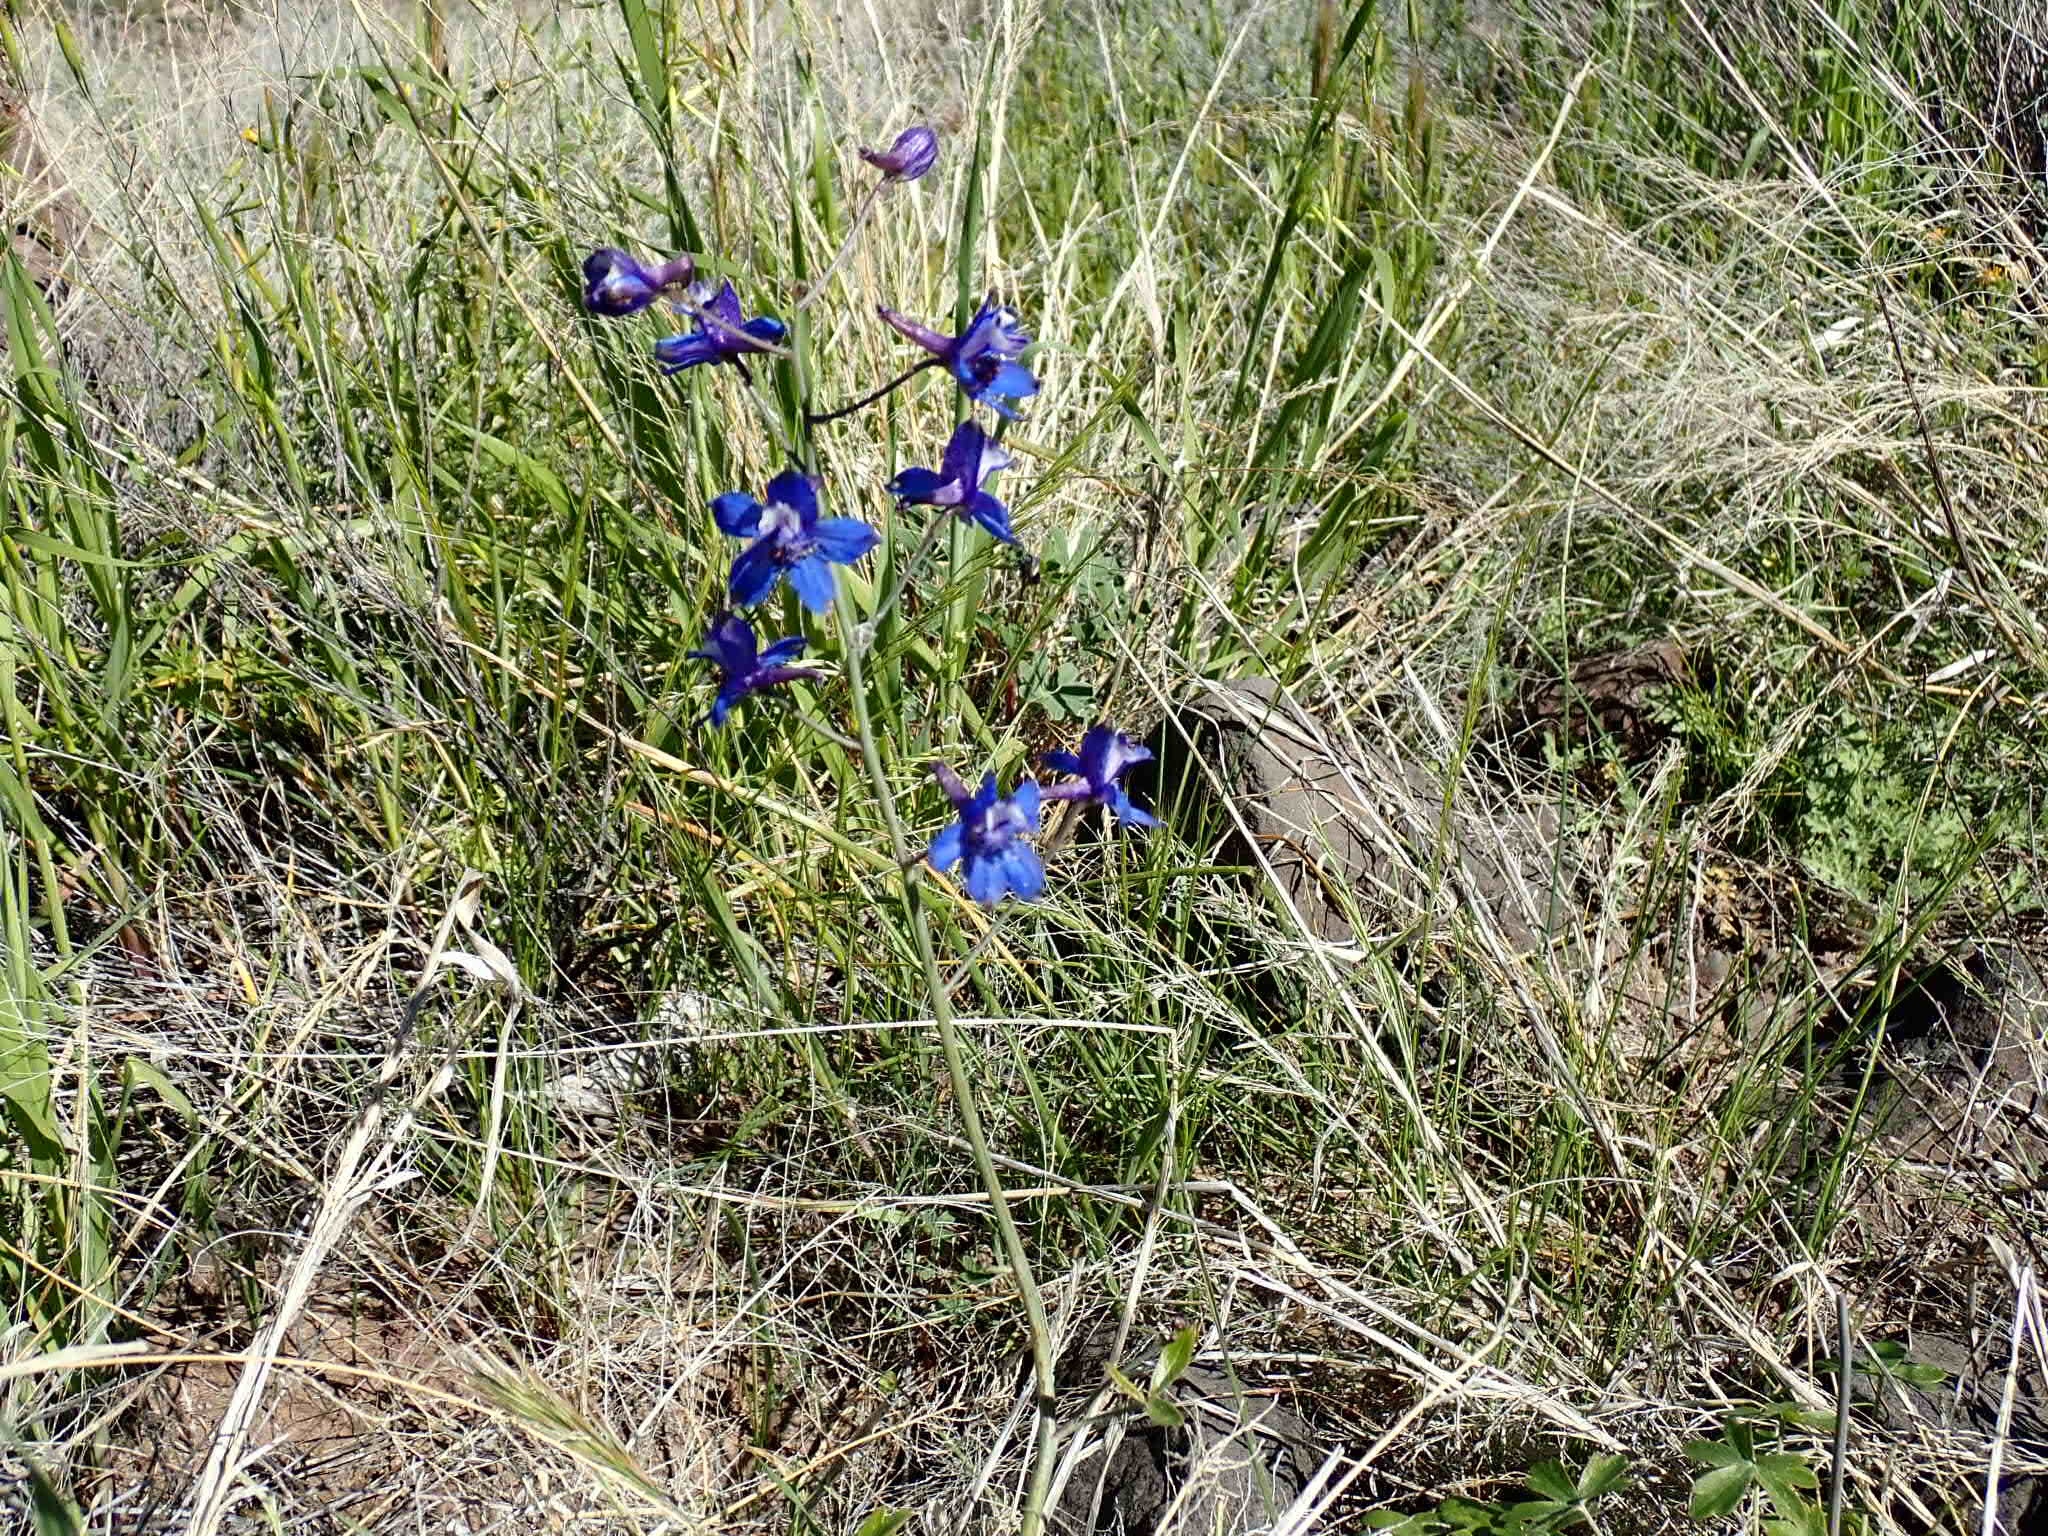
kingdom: Plantae
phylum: Tracheophyta
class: Magnoliopsida
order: Ranunculales
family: Ranunculaceae
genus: Delphinium
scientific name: Delphinium scaposum
